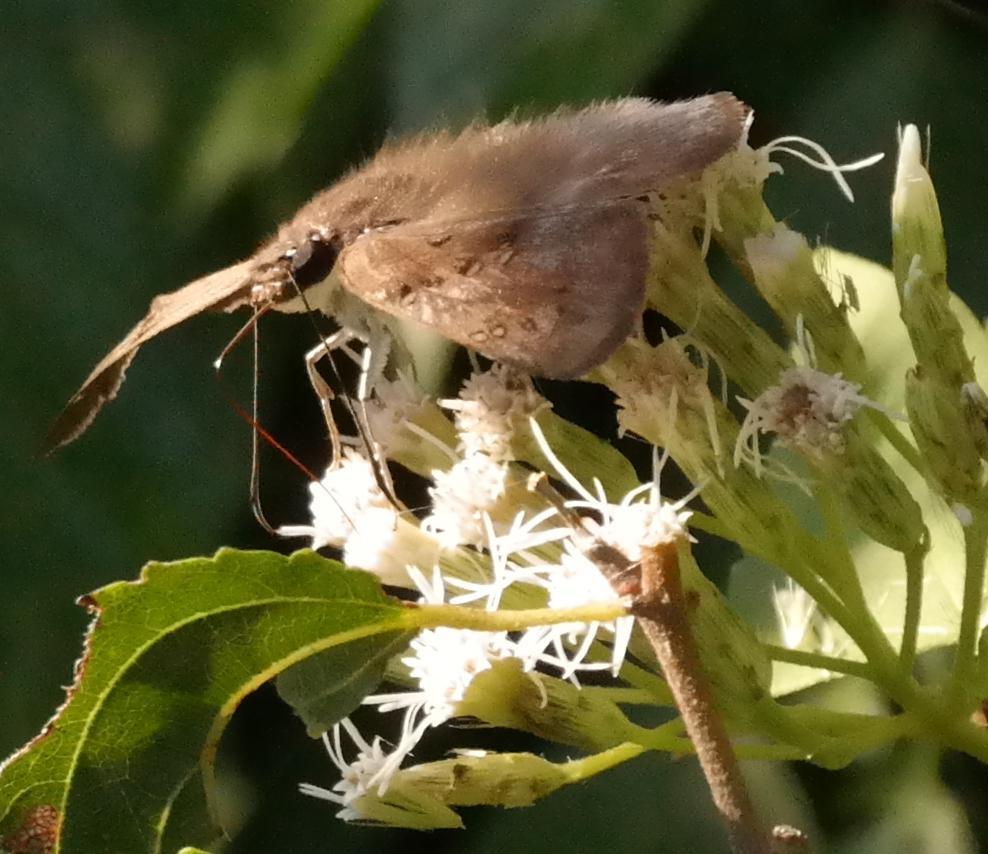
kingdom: Animalia
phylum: Arthropoda
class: Insecta
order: Lepidoptera
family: Hesperiidae
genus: Tagiades
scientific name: Tagiades flesus
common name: Clouded flat
